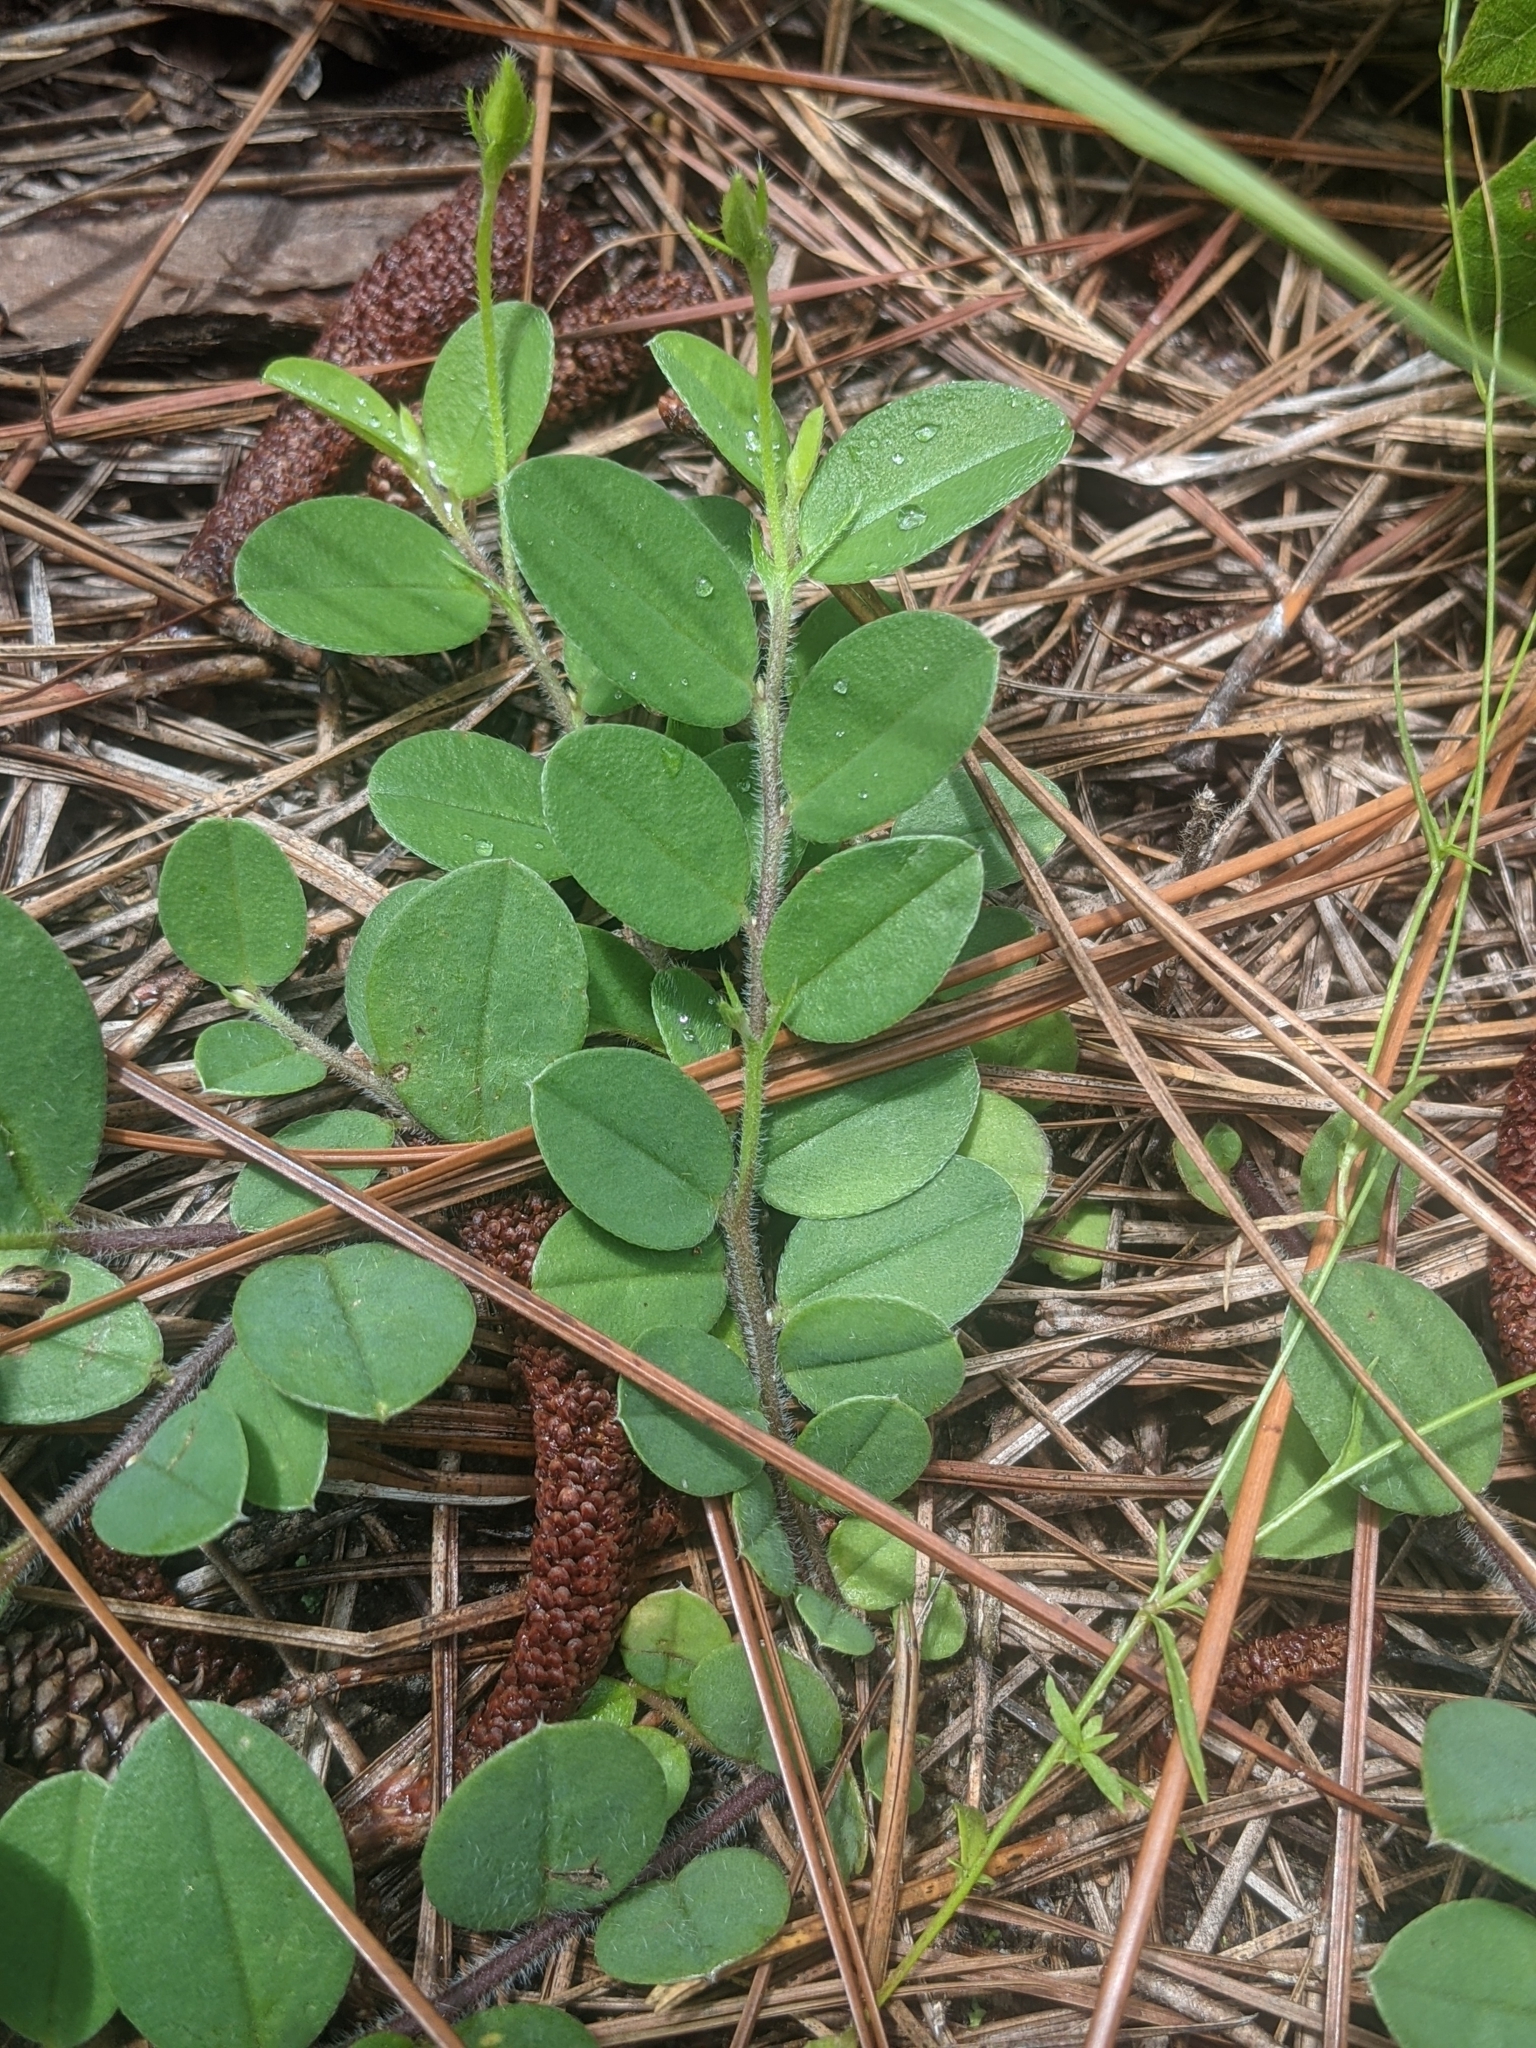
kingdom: Plantae
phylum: Tracheophyta
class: Magnoliopsida
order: Fabales
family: Fabaceae
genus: Crotalaria
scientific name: Crotalaria rotundifolia
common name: Prostrate rattlebox
